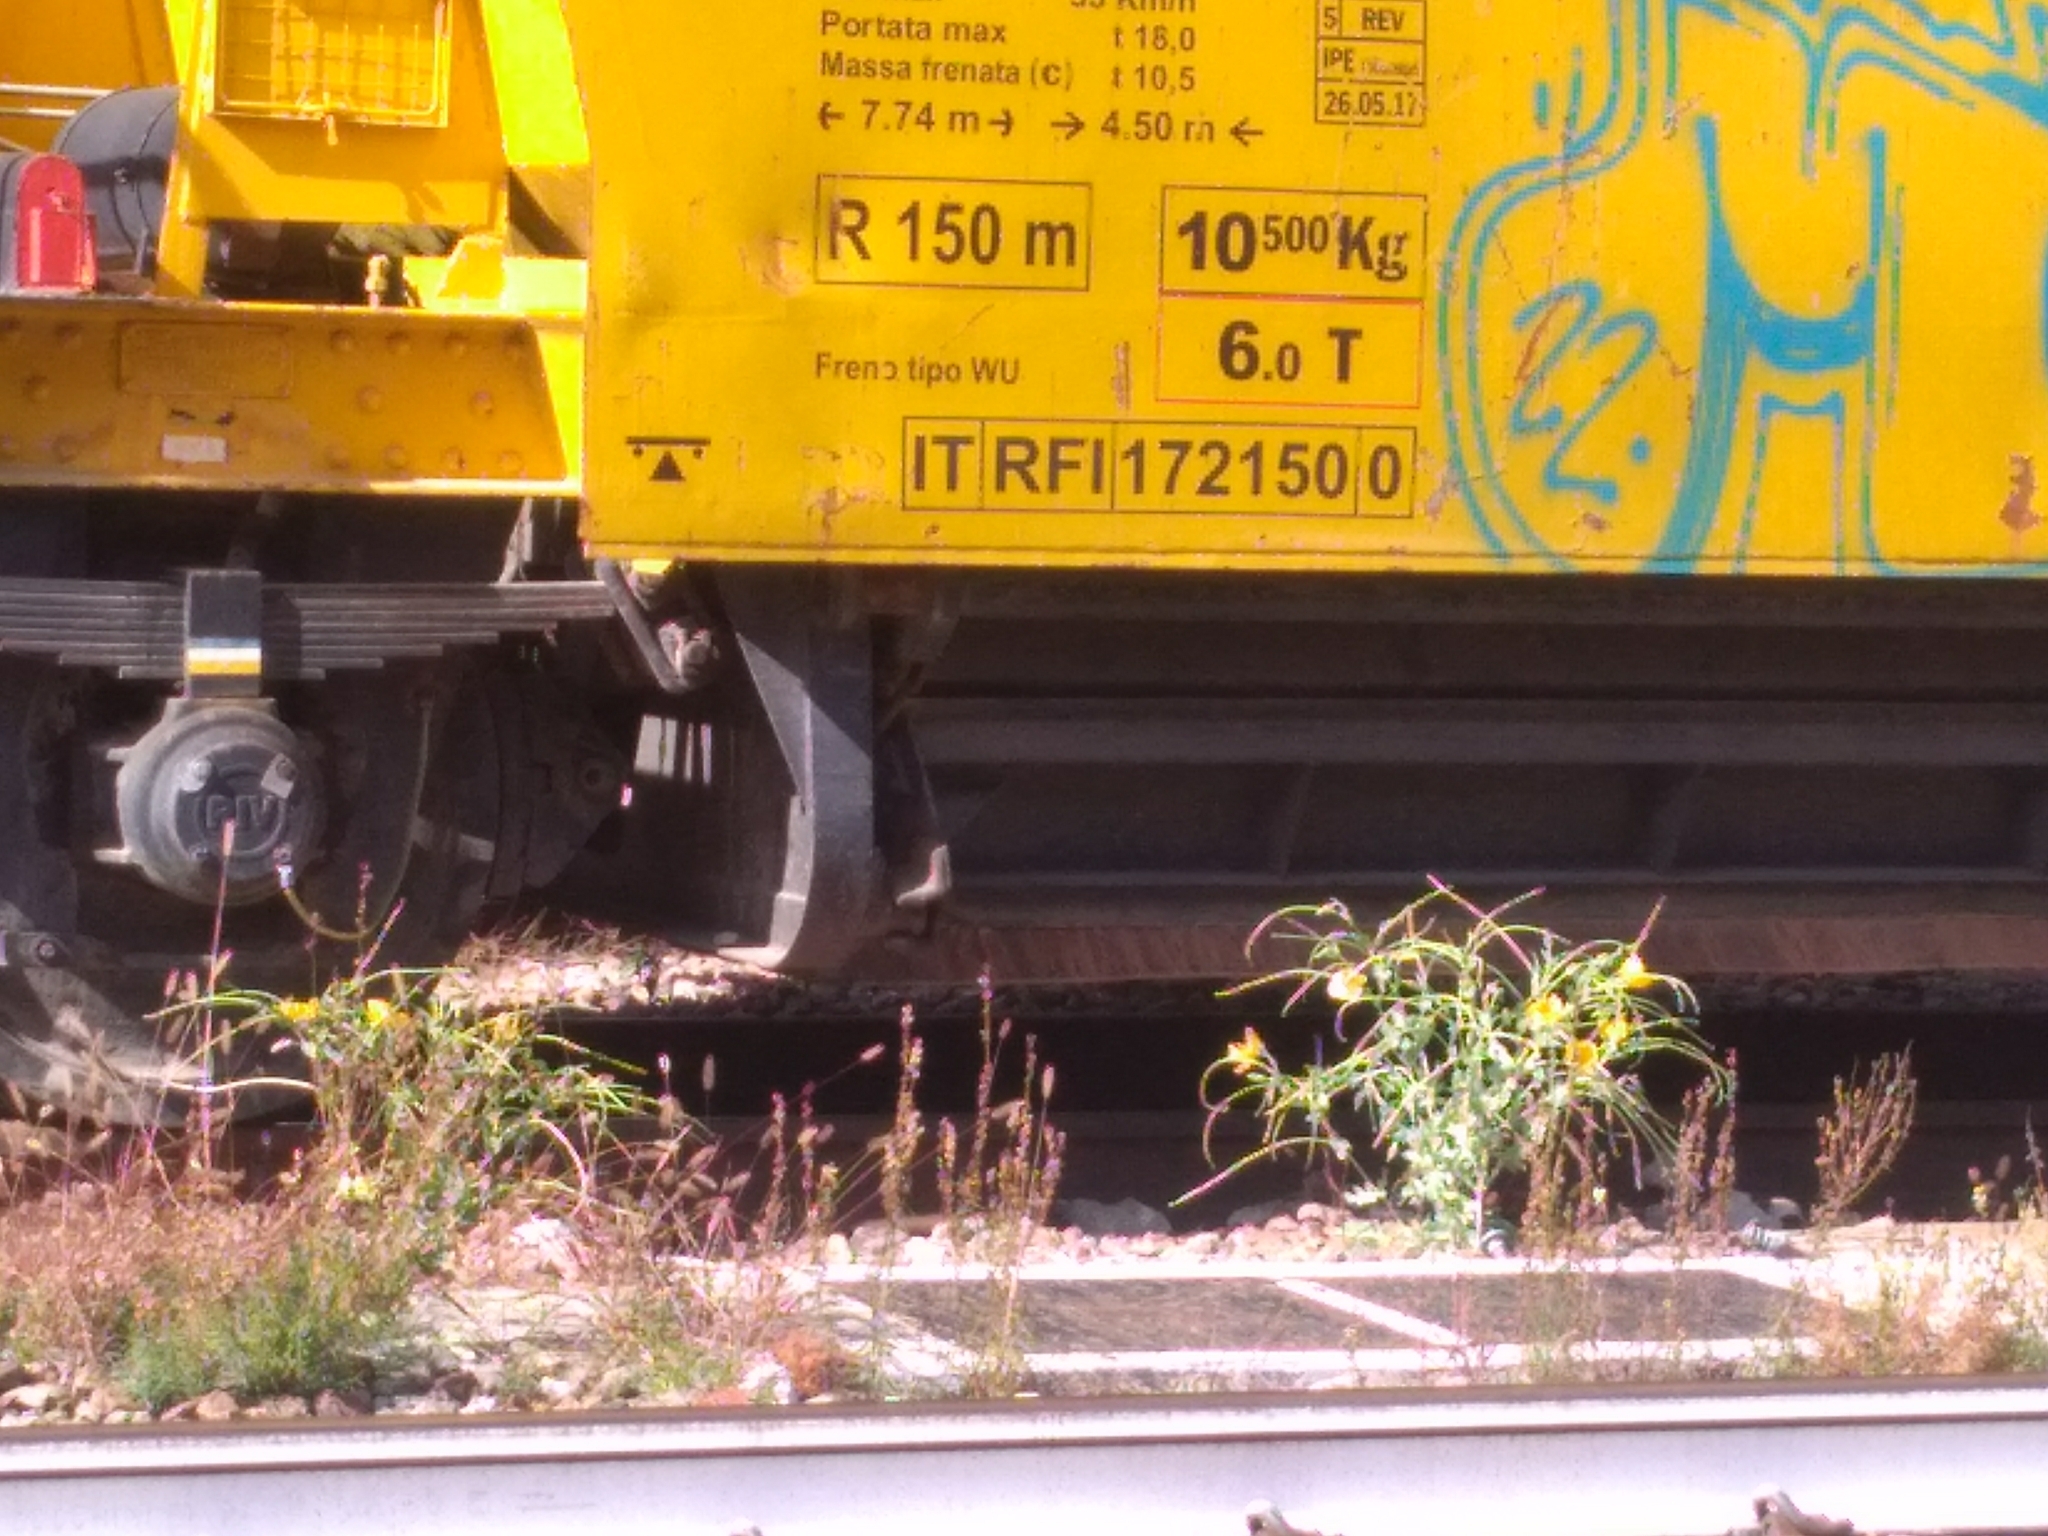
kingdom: Plantae
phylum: Tracheophyta
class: Magnoliopsida
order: Ranunculales
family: Papaveraceae
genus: Glaucium
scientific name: Glaucium flavum
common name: Yellow horned-poppy
